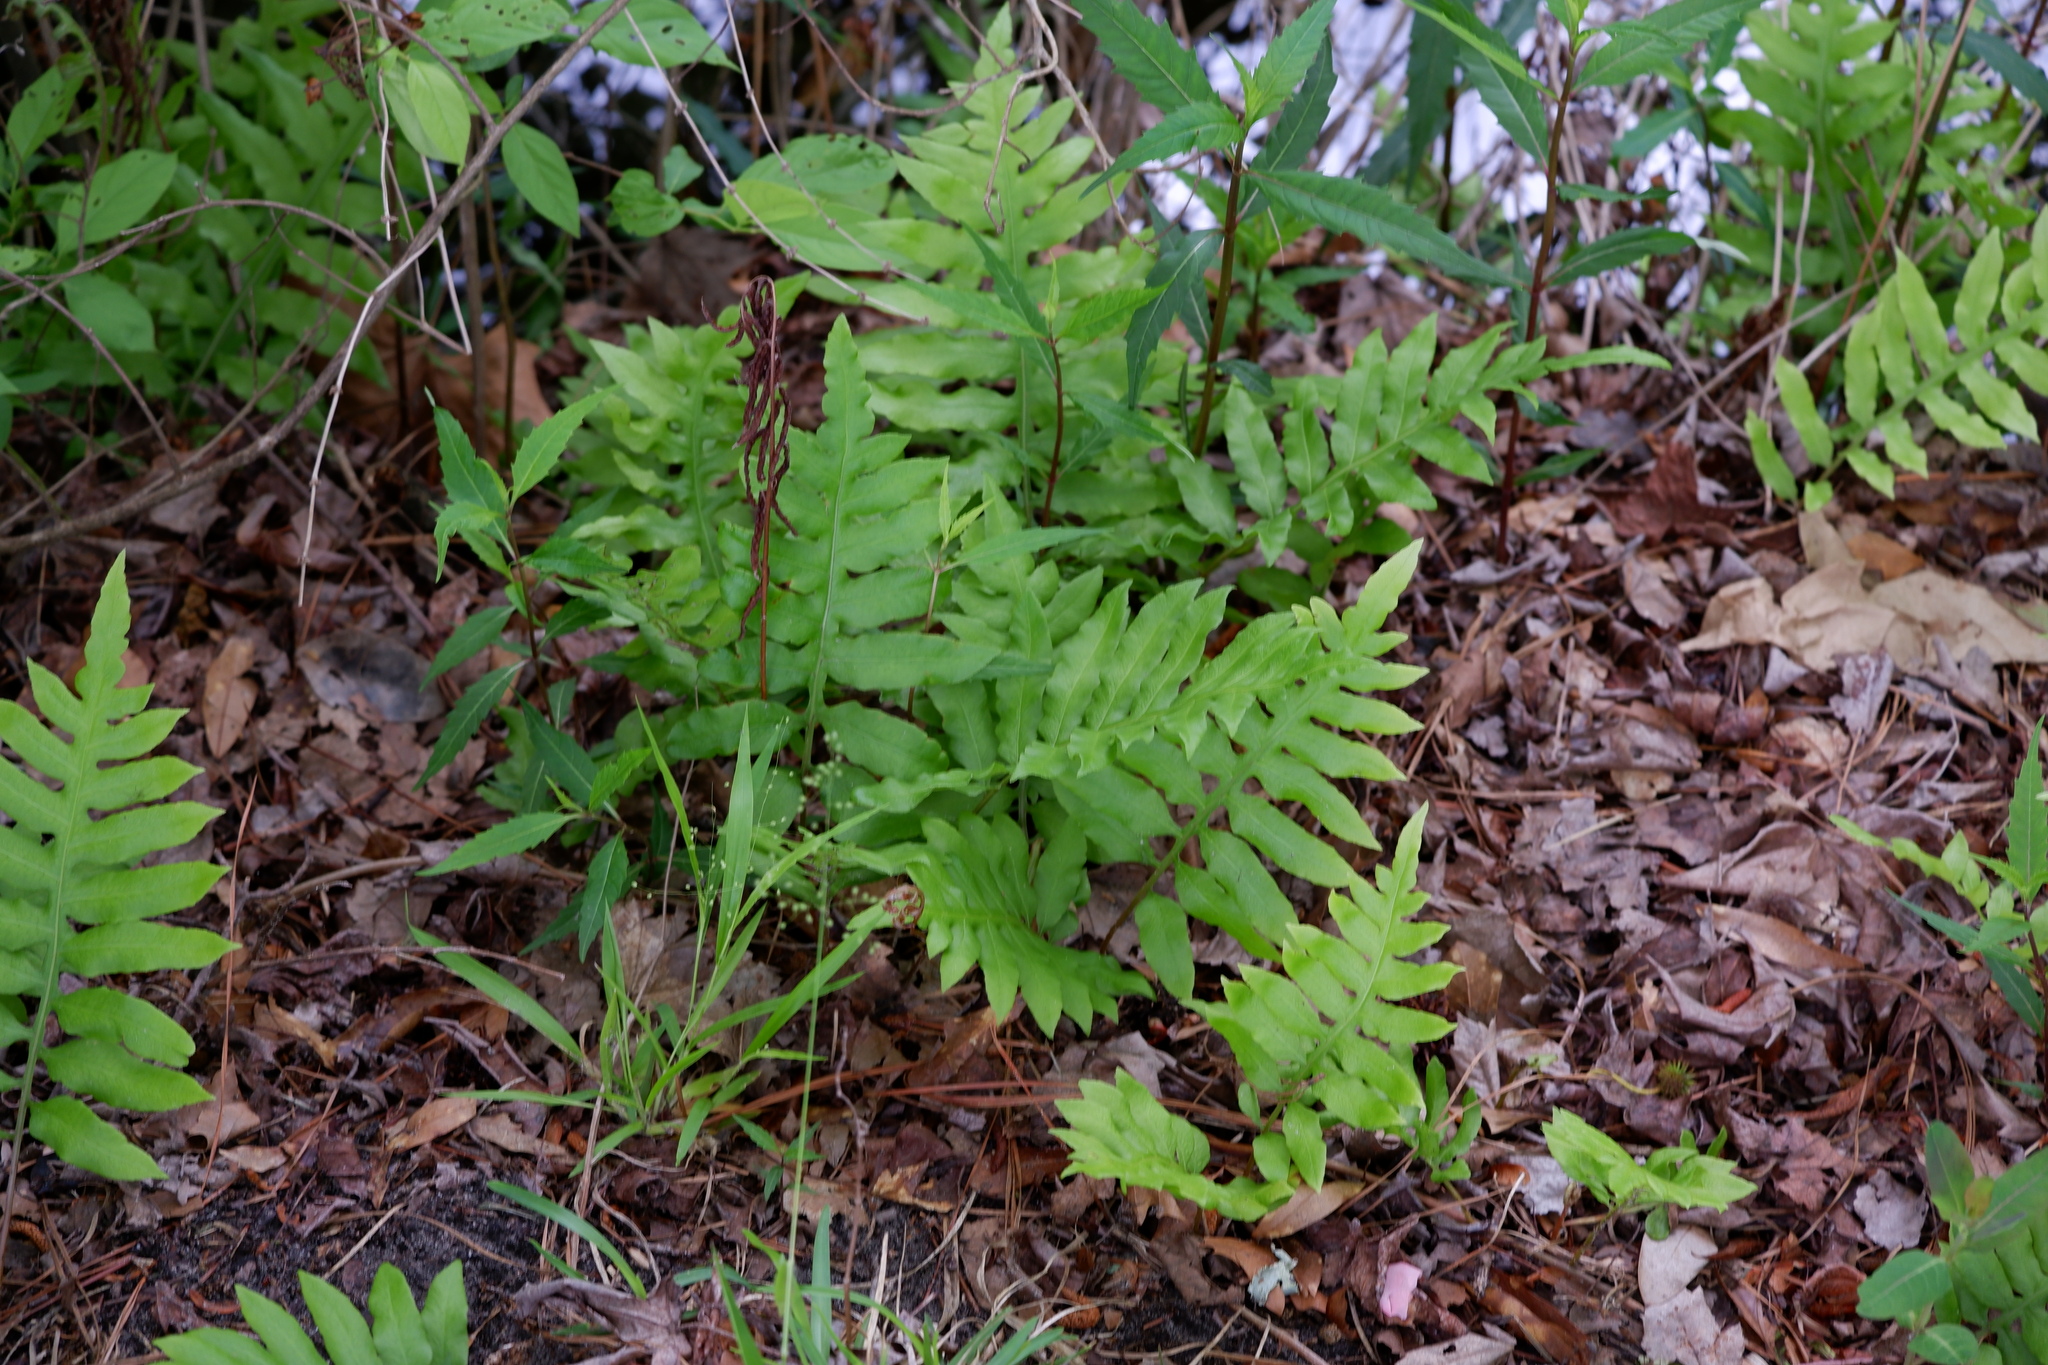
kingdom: Plantae
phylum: Tracheophyta
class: Polypodiopsida
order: Polypodiales
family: Blechnaceae
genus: Lorinseria
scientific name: Lorinseria areolata
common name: Dwarf chain fern
